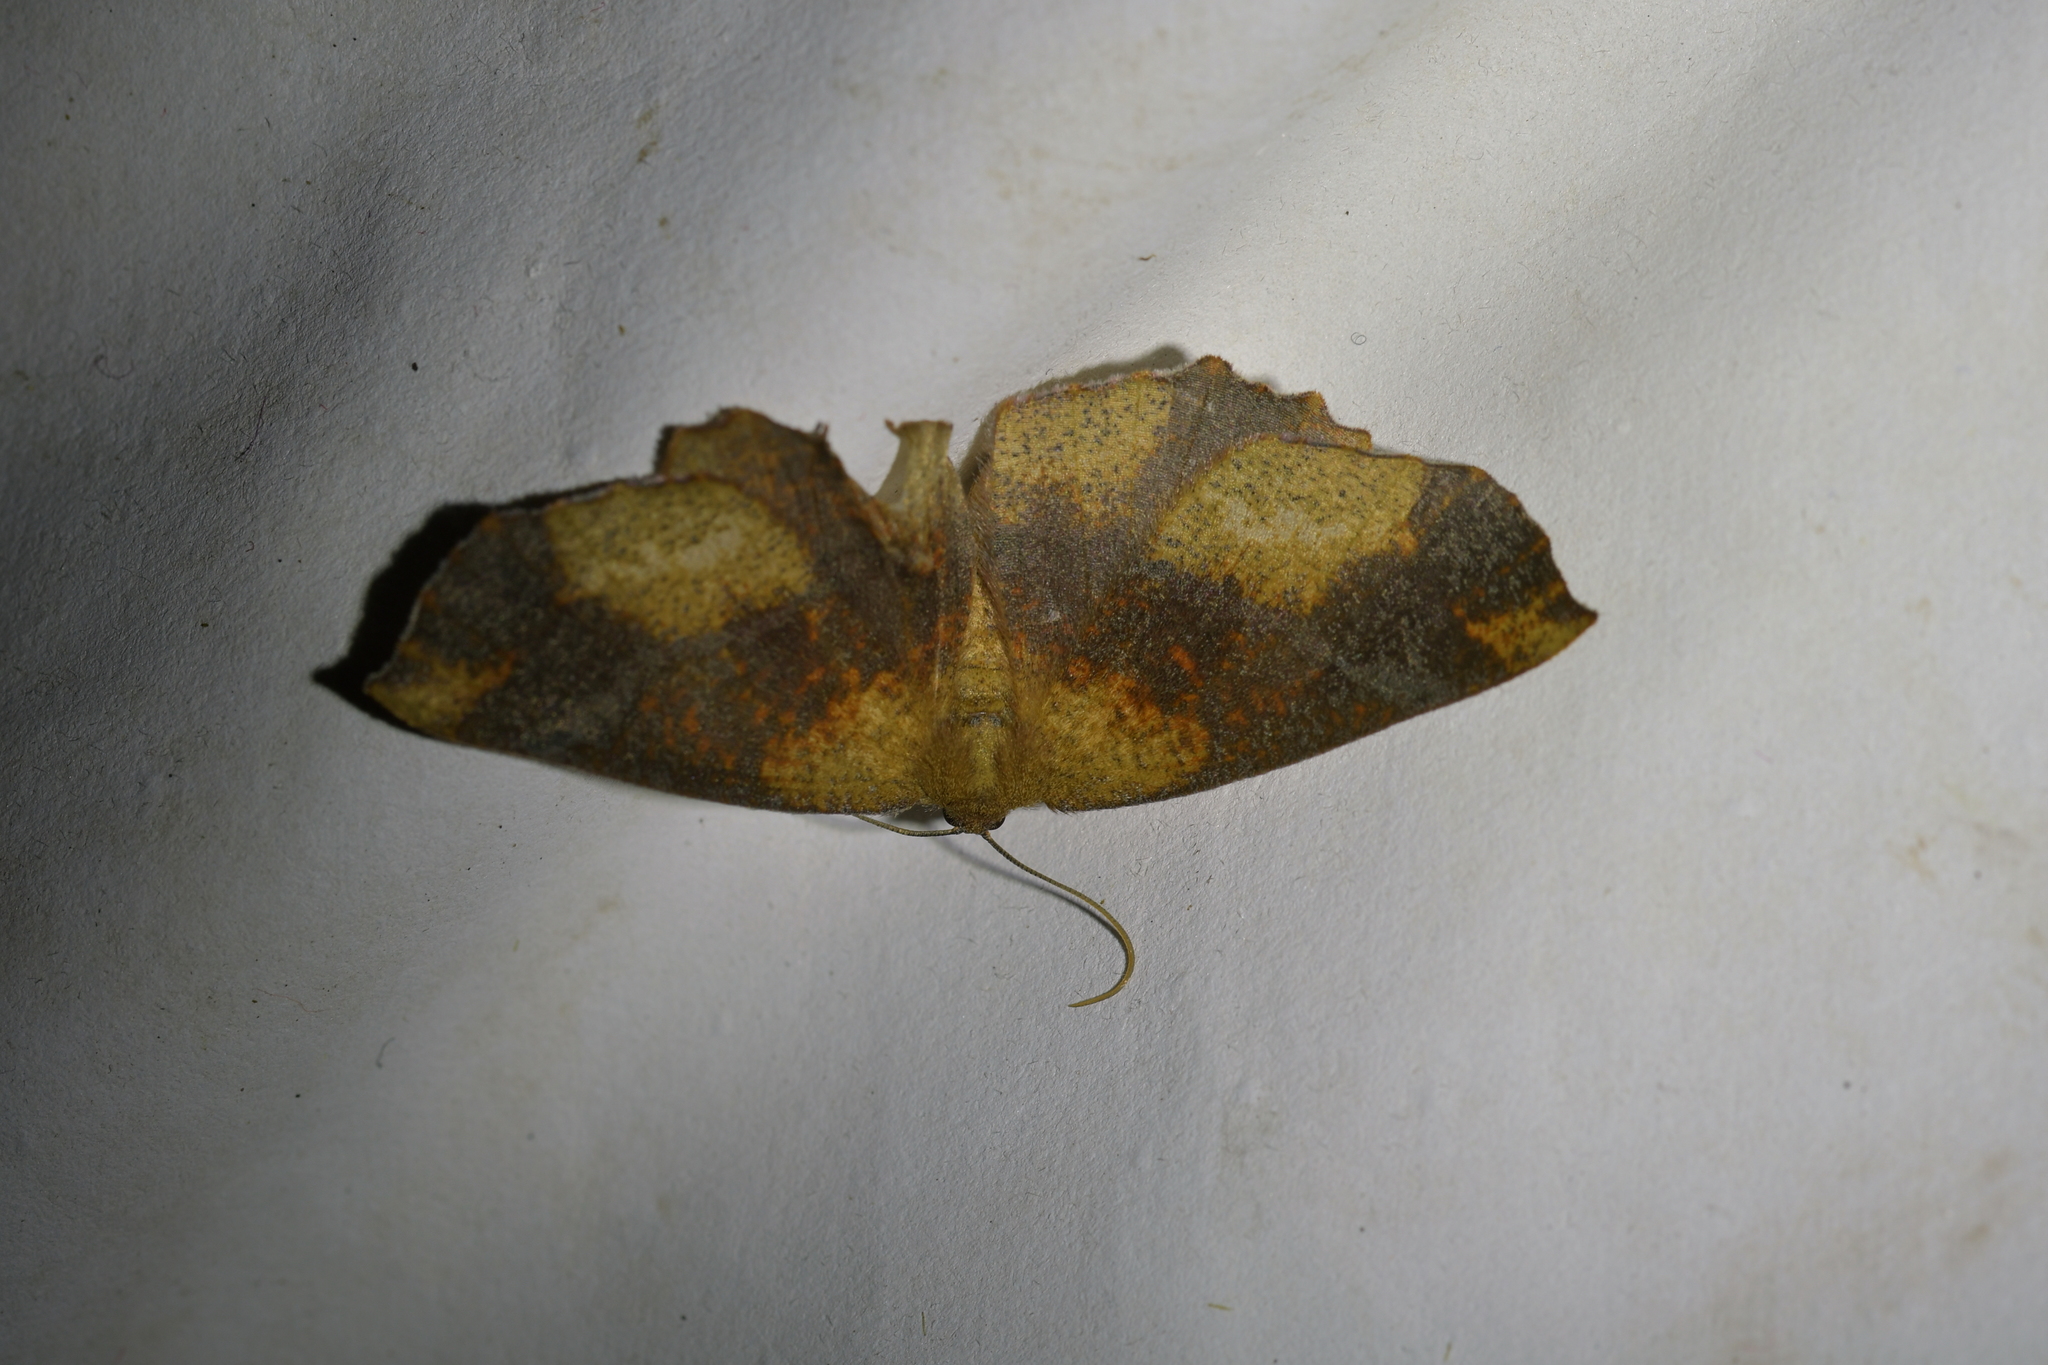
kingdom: Animalia
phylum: Arthropoda
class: Insecta
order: Lepidoptera
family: Geometridae
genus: Xyridacma
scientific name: Xyridacma ustaria
